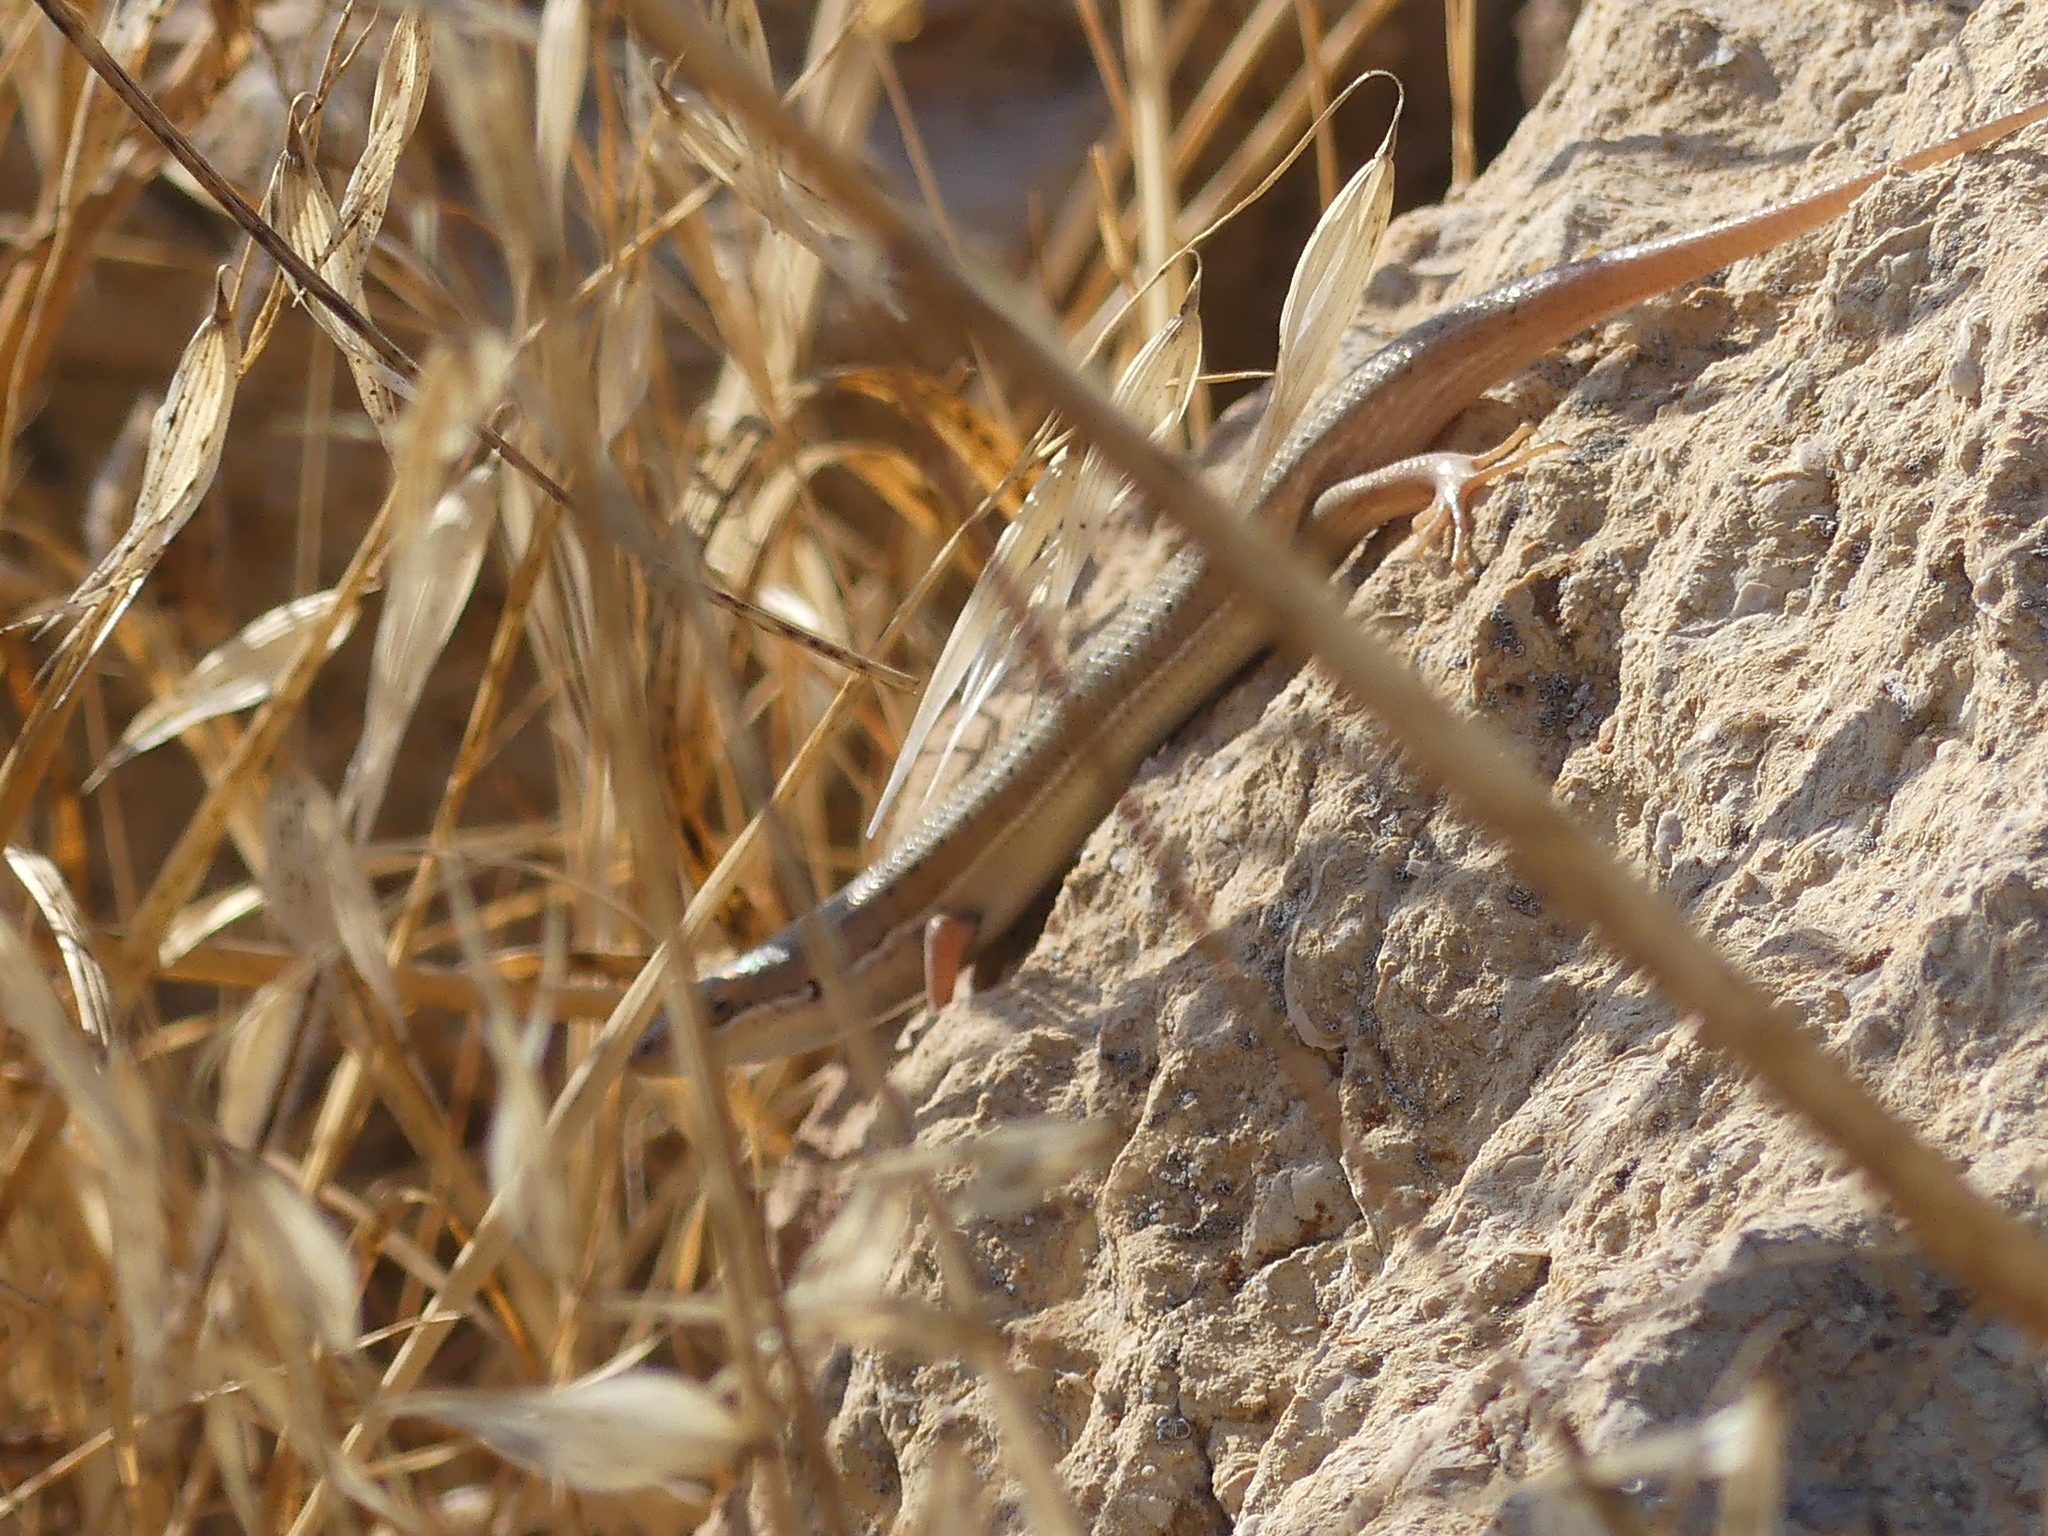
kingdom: Animalia
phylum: Chordata
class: Squamata
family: Scincidae
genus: Heremites
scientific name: Heremites vittatus
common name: Bridled mabuya
